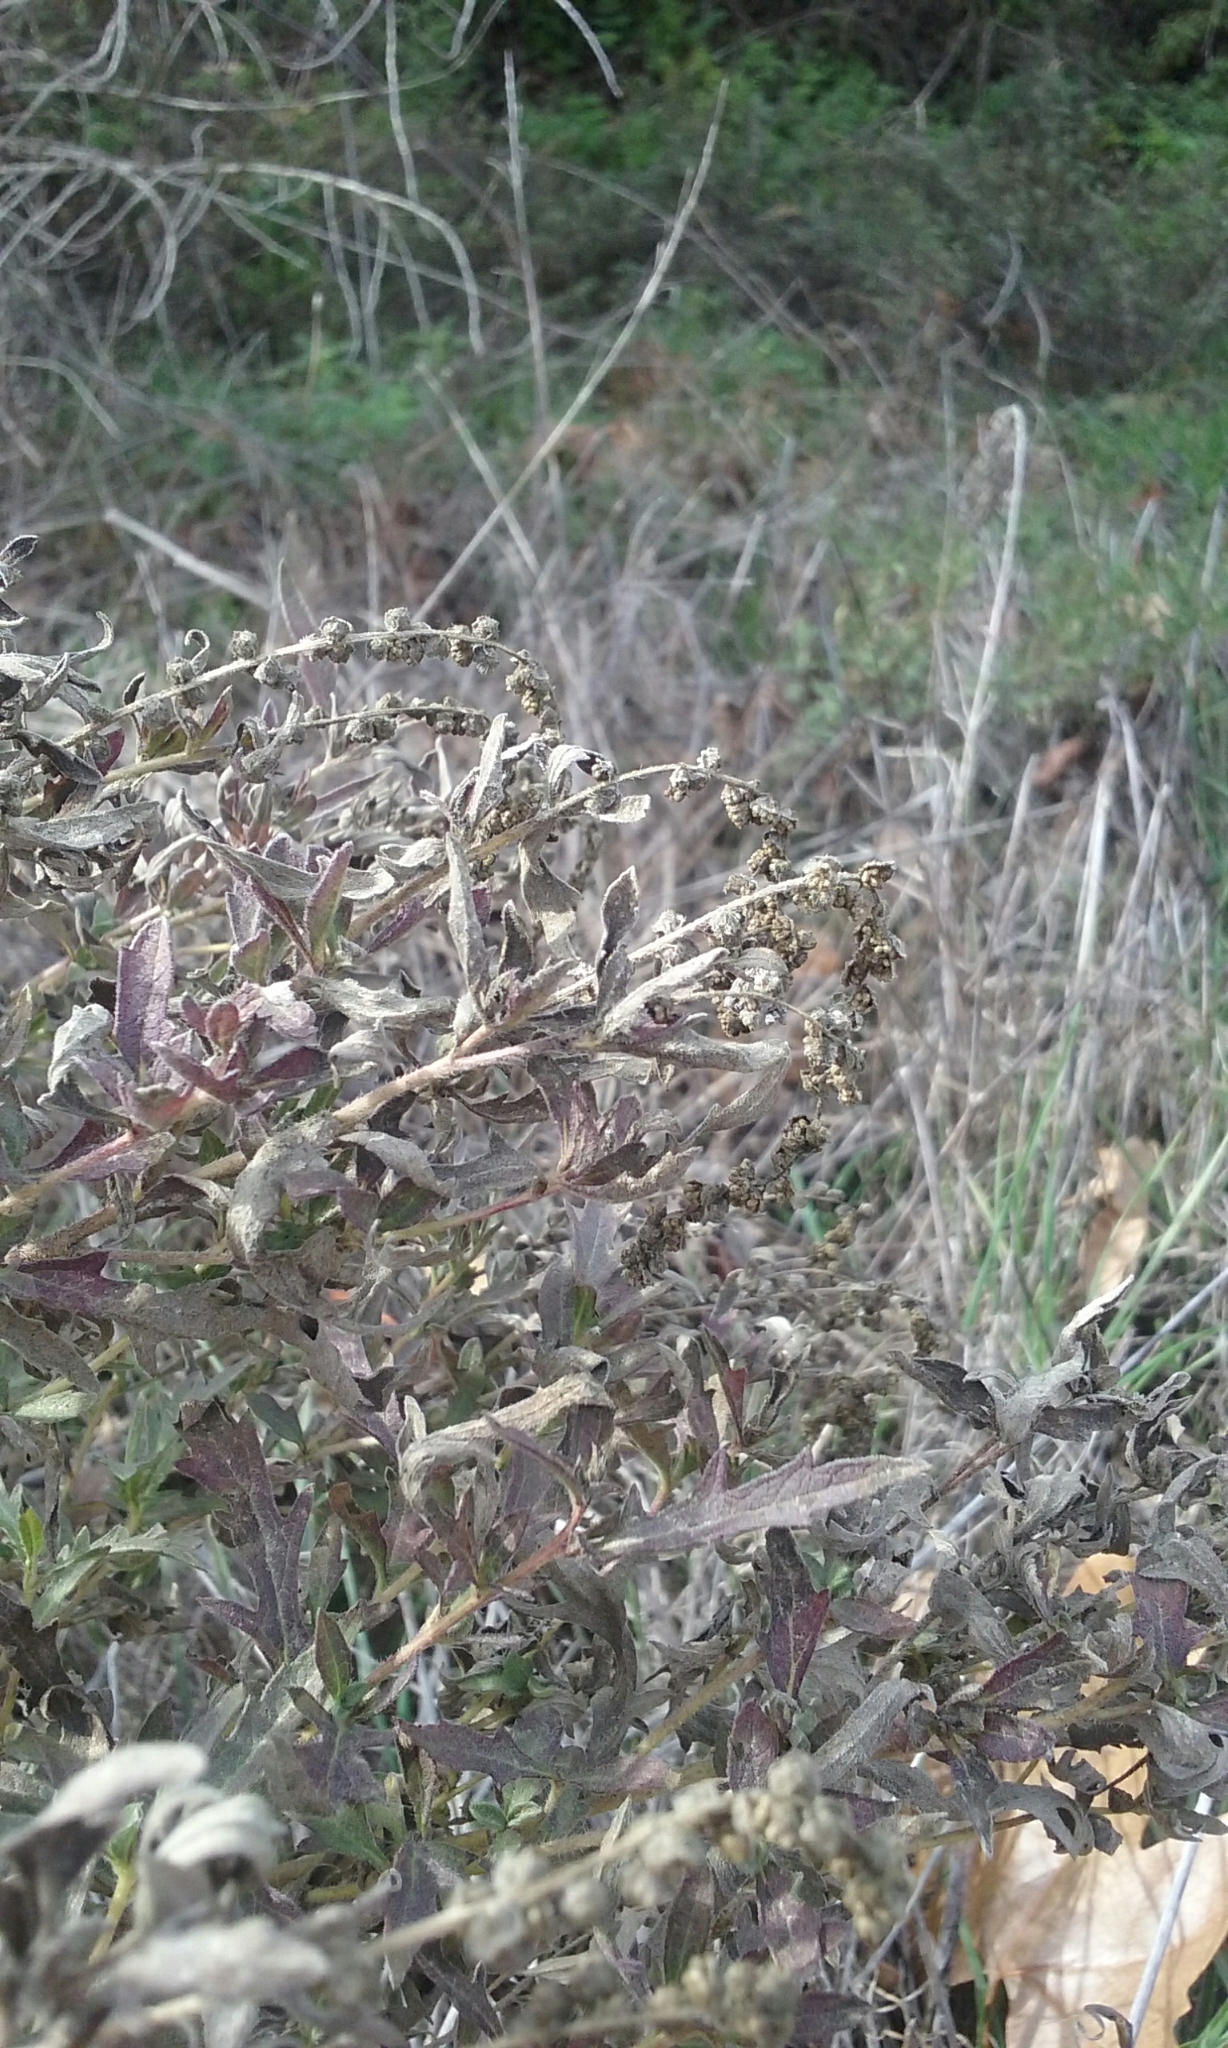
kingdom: Plantae
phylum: Tracheophyta
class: Magnoliopsida
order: Asterales
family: Asteraceae
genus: Ambrosia
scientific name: Ambrosia psilostachya
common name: Perennial ragweed
